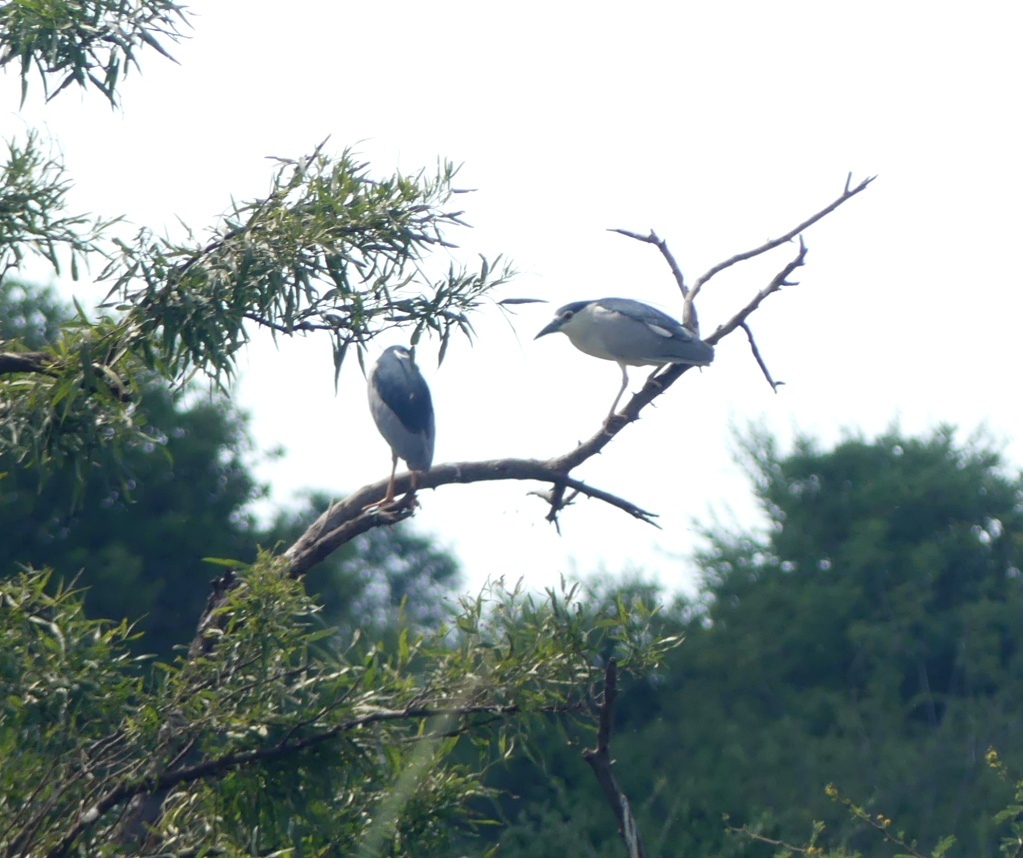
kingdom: Animalia
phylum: Chordata
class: Aves
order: Pelecaniformes
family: Ardeidae
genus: Nycticorax
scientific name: Nycticorax nycticorax
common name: Black-crowned night heron
